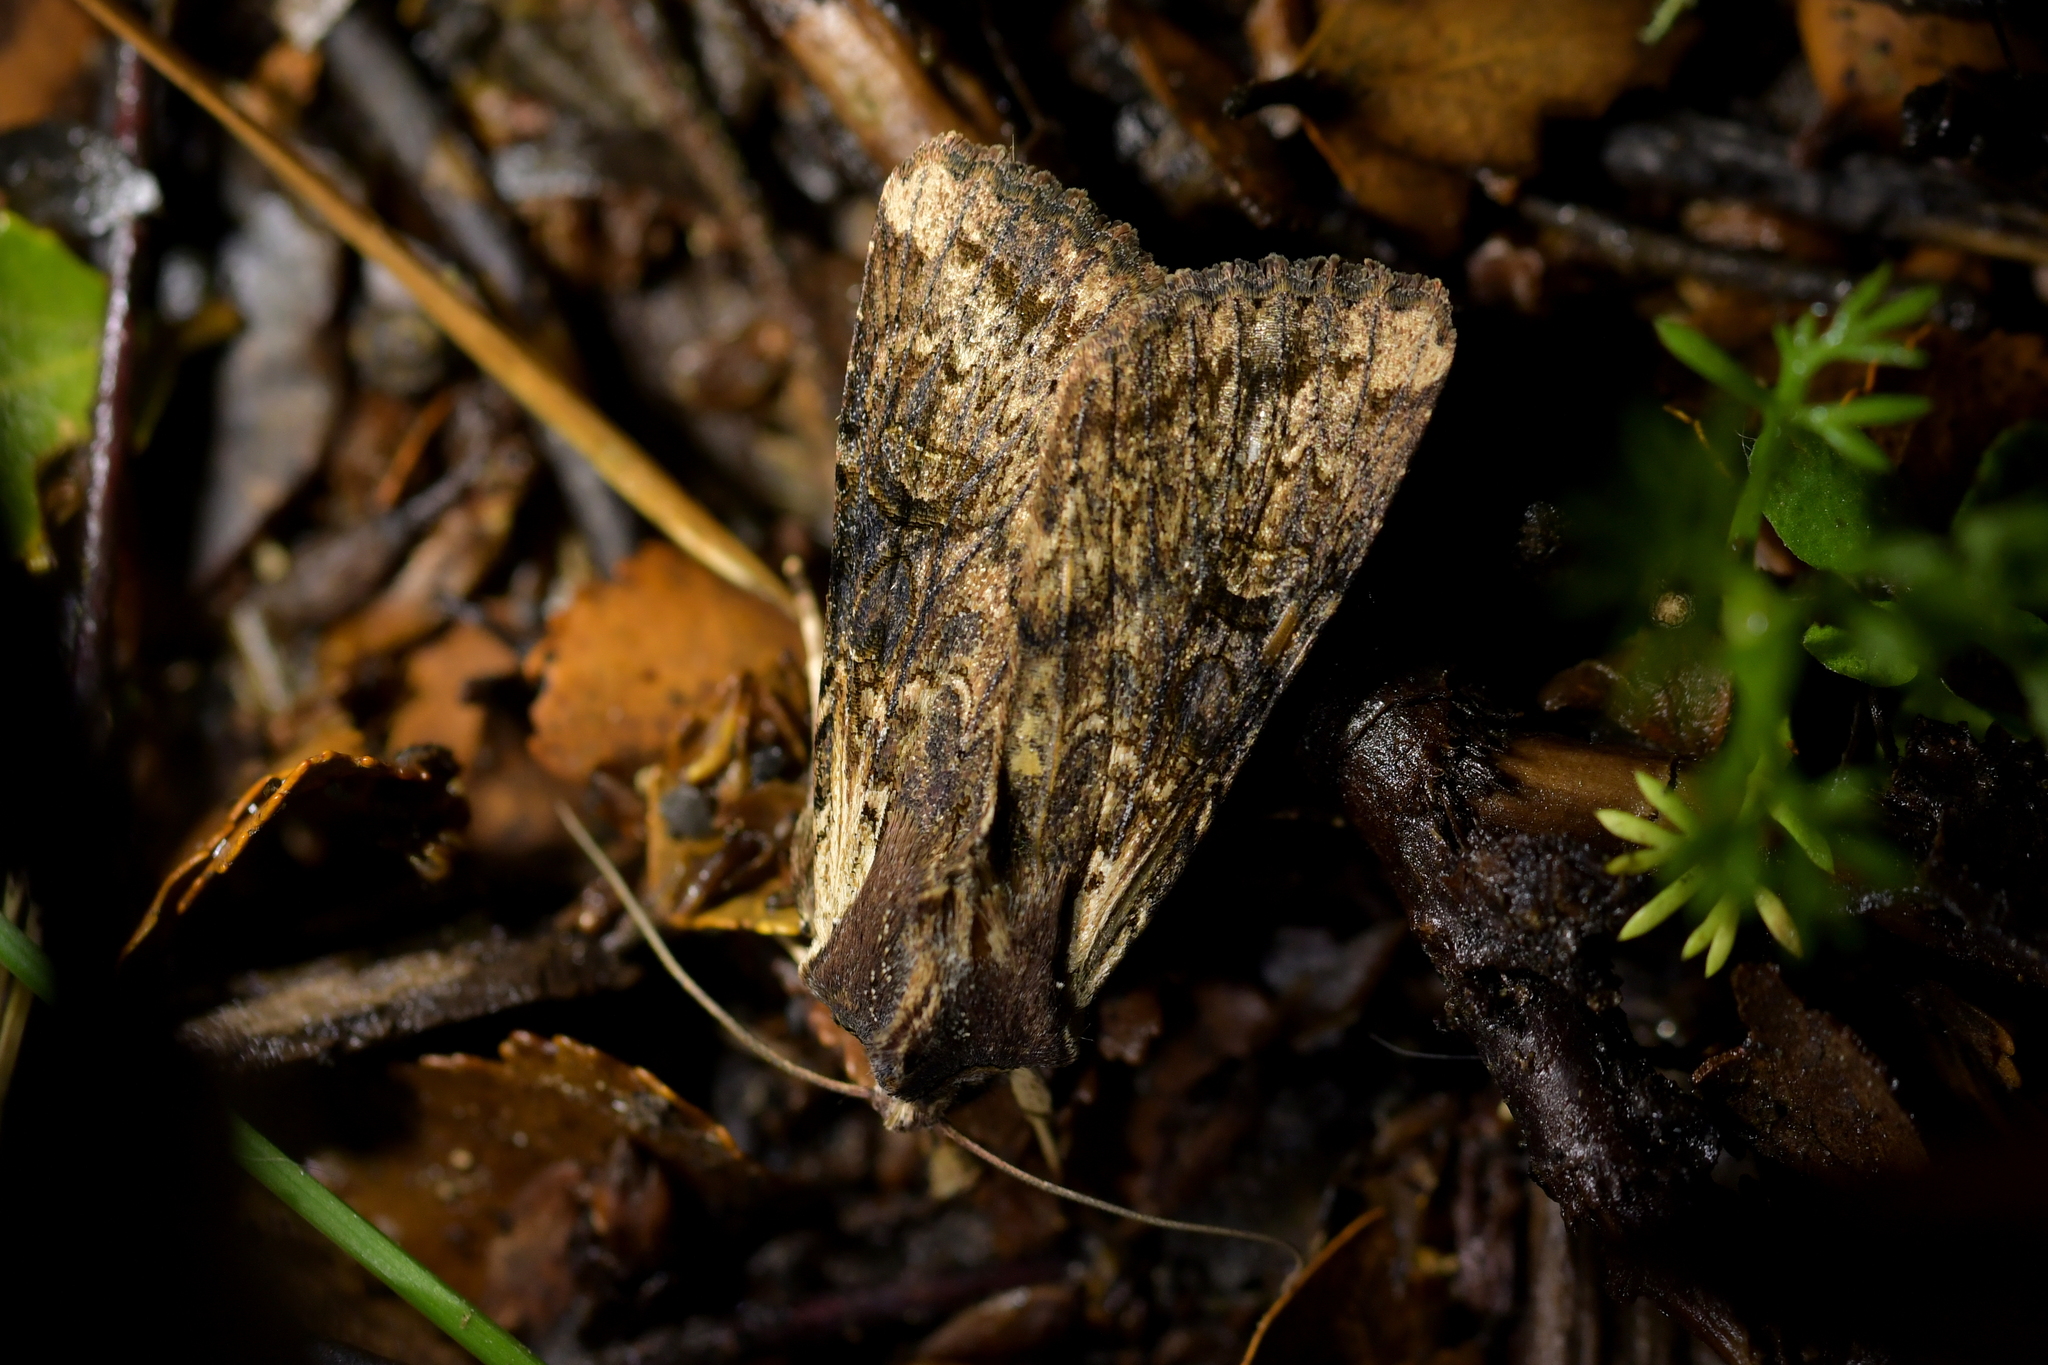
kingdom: Animalia
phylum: Arthropoda
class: Insecta
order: Lepidoptera
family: Noctuidae
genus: Ichneutica
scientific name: Ichneutica omoplaca
